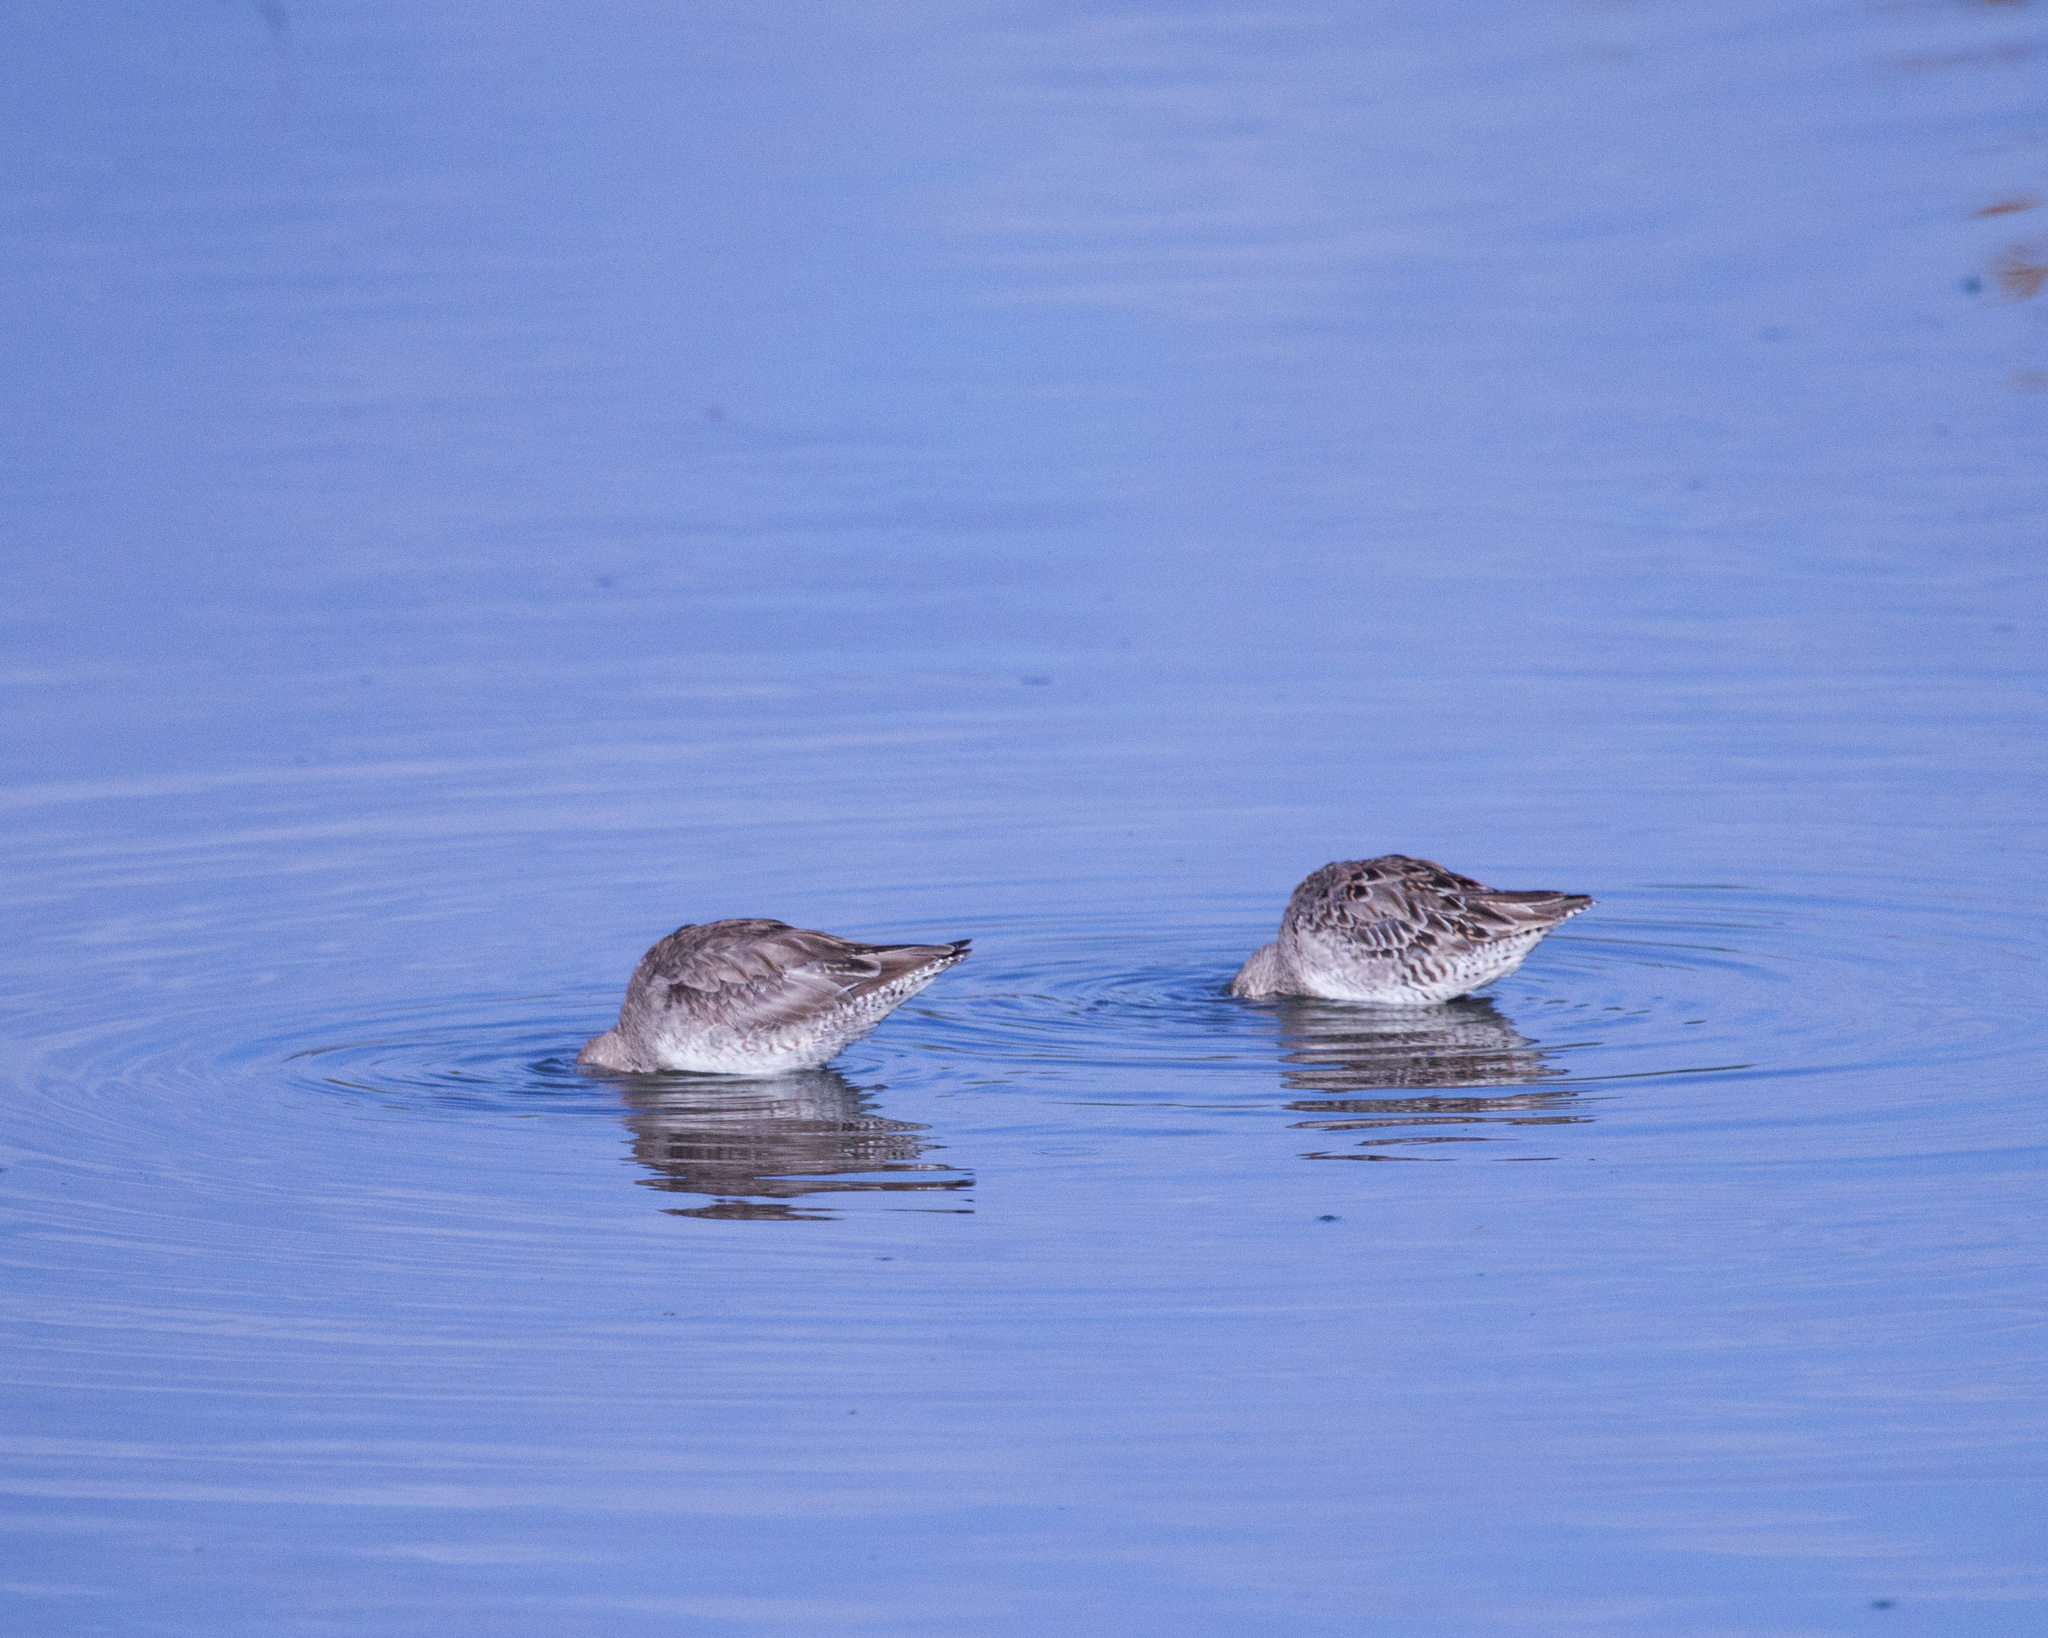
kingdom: Animalia
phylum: Chordata
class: Aves
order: Charadriiformes
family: Scolopacidae
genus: Limnodromus
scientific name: Limnodromus scolopaceus
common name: Long-billed dowitcher
